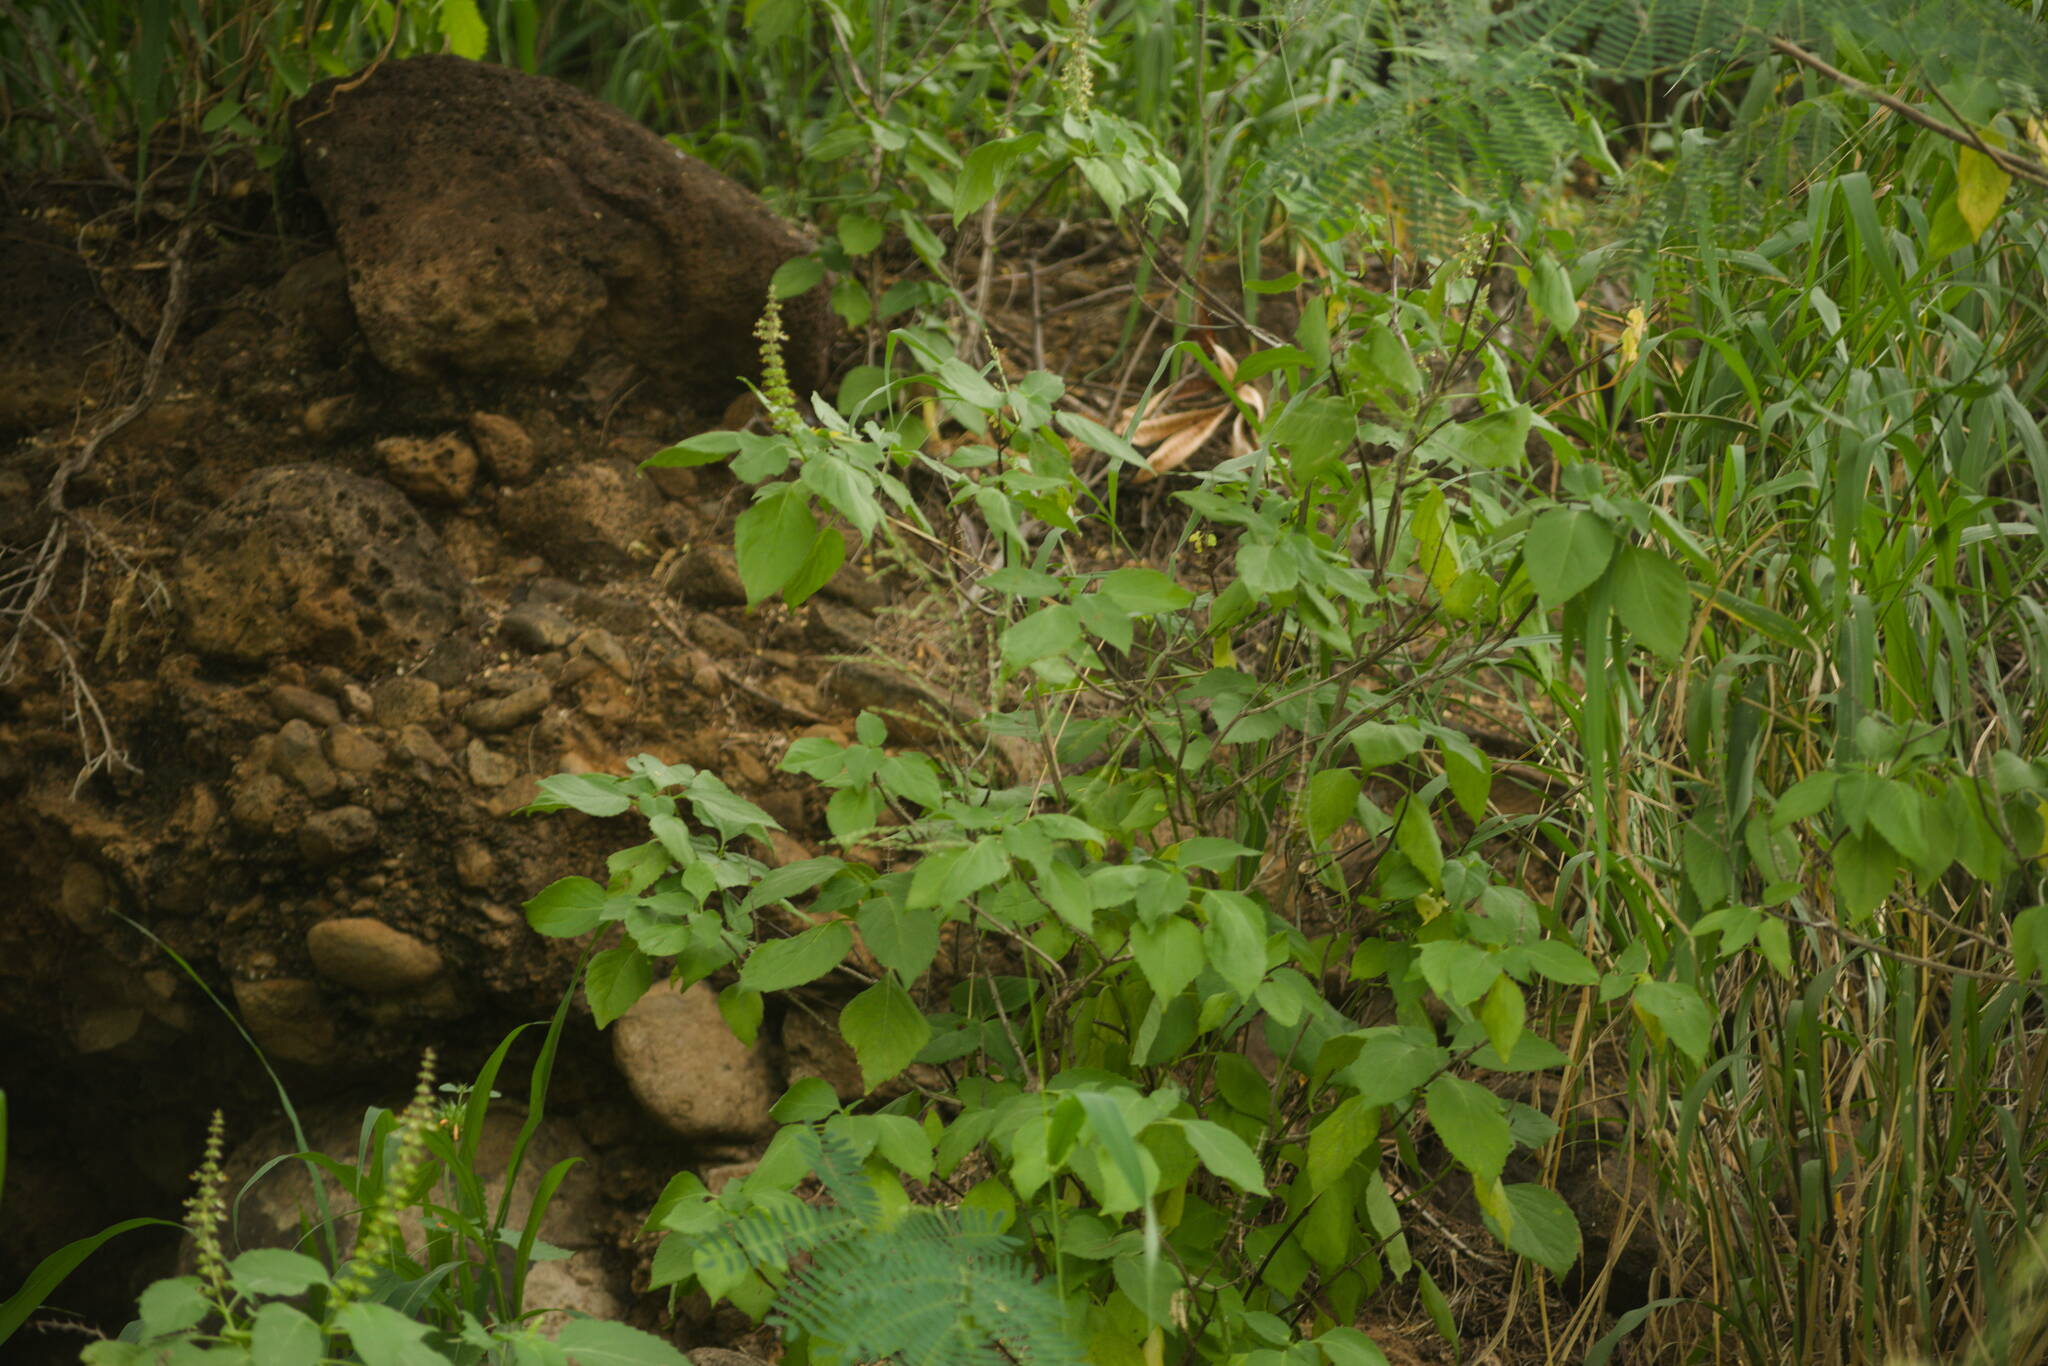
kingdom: Plantae
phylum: Tracheophyta
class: Magnoliopsida
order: Lamiales
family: Lamiaceae
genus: Ocimum
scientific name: Ocimum gratissimum
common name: African basil
